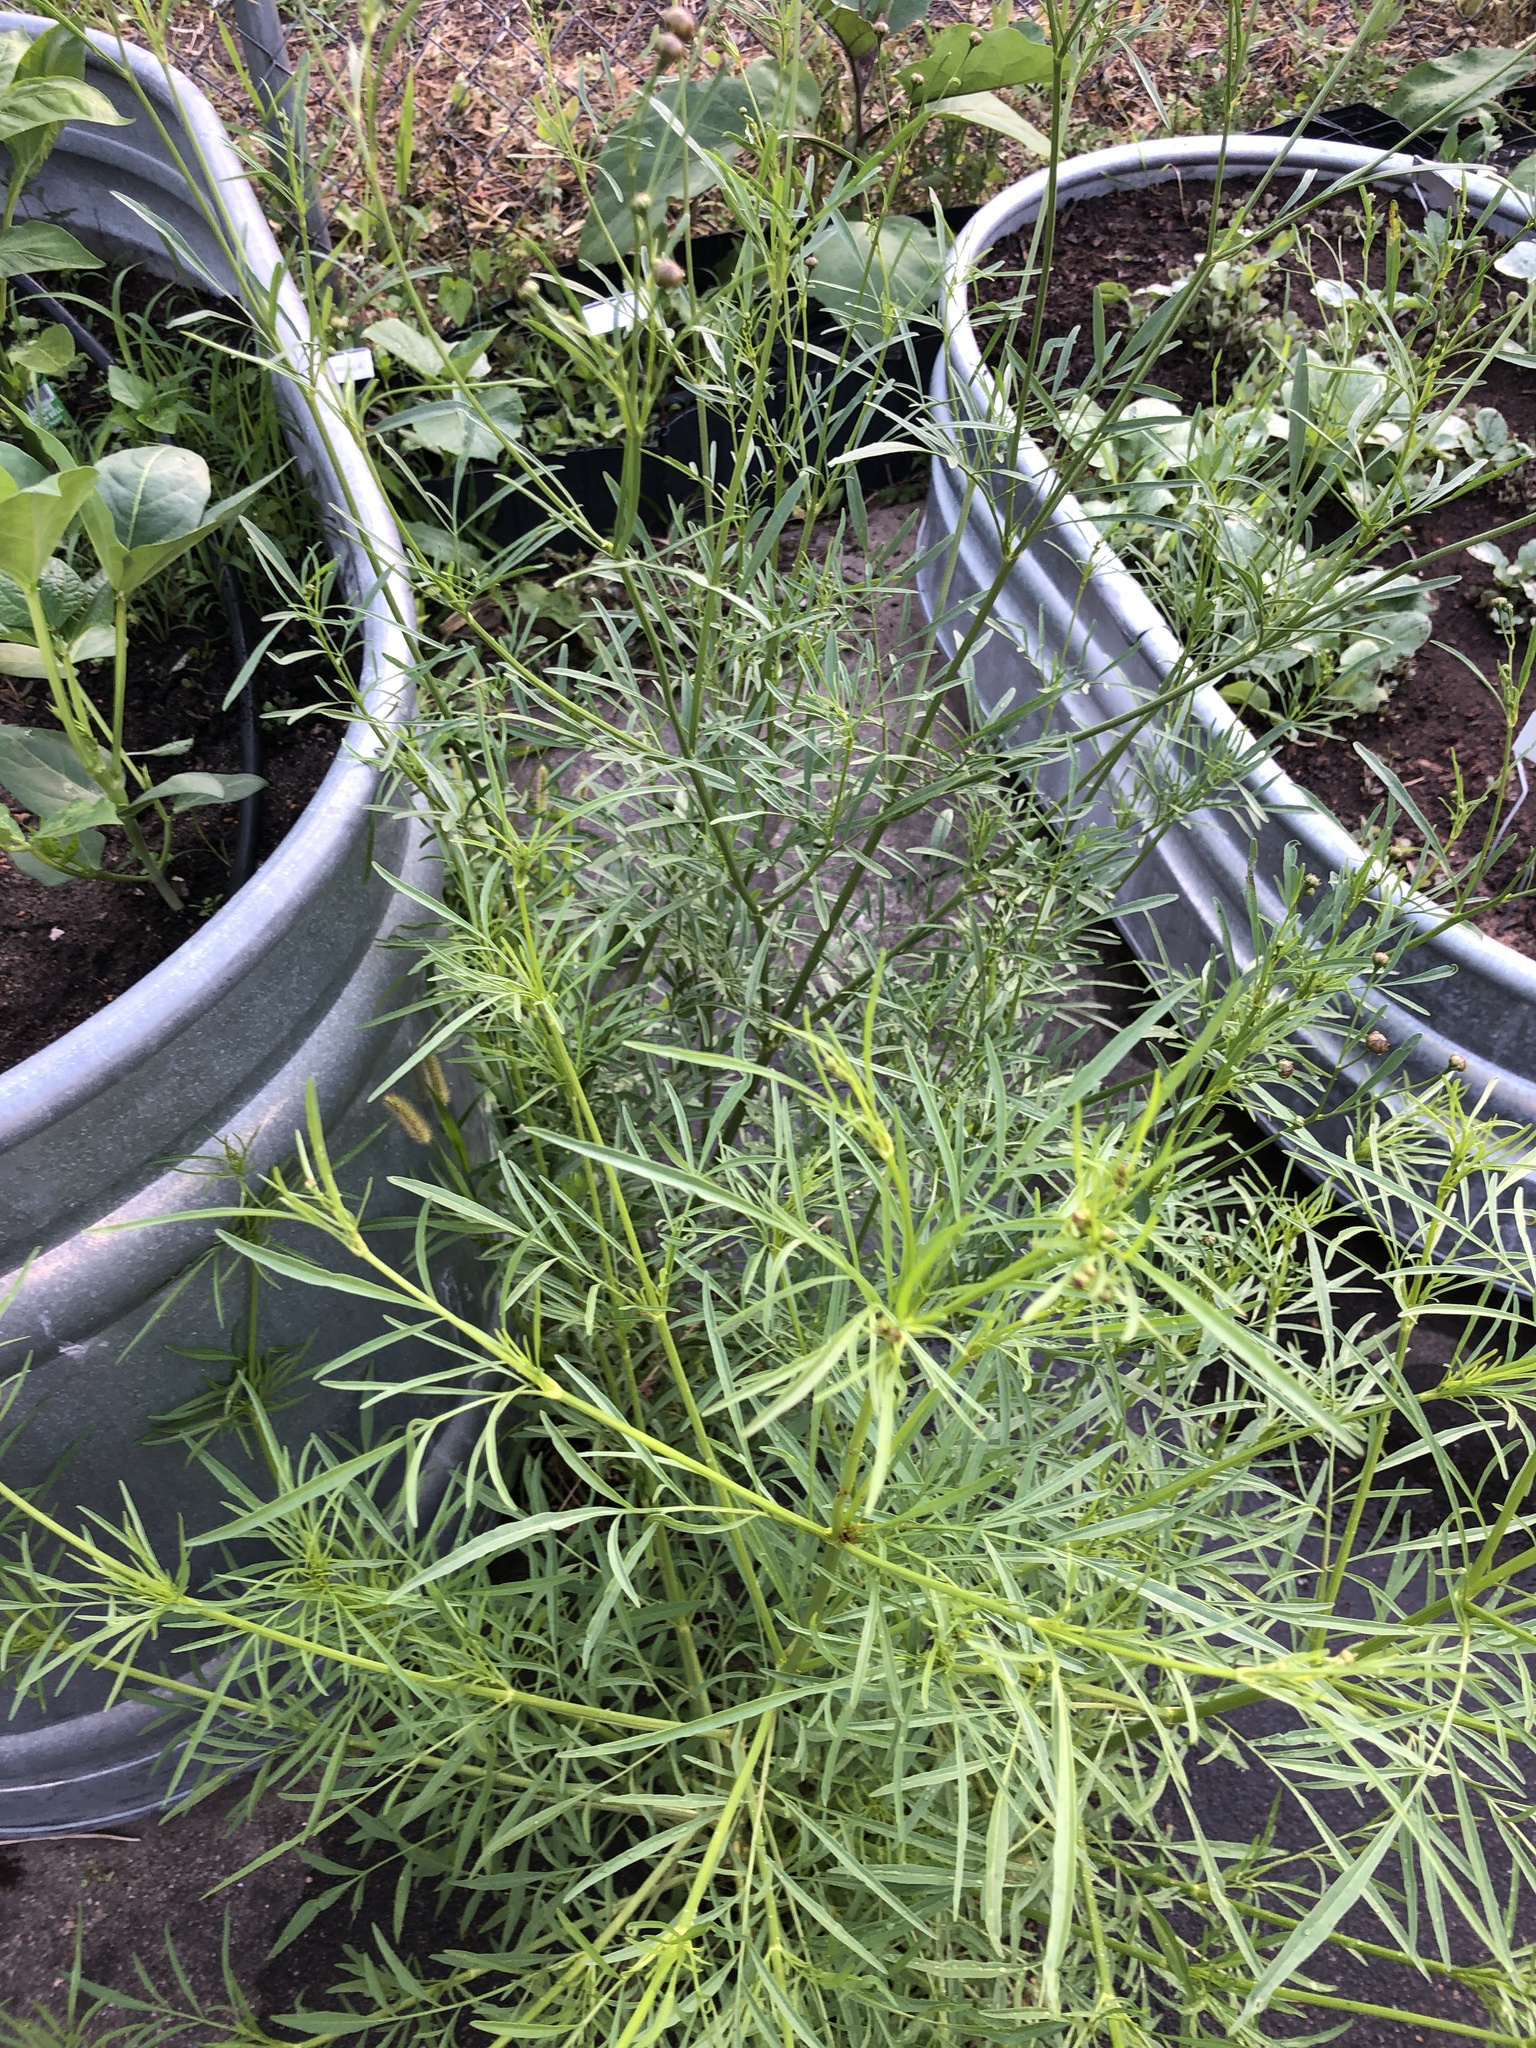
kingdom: Plantae
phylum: Tracheophyta
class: Magnoliopsida
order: Asterales
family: Asteraceae
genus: Coreopsis
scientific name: Coreopsis tinctoria
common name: Garden tickseed
